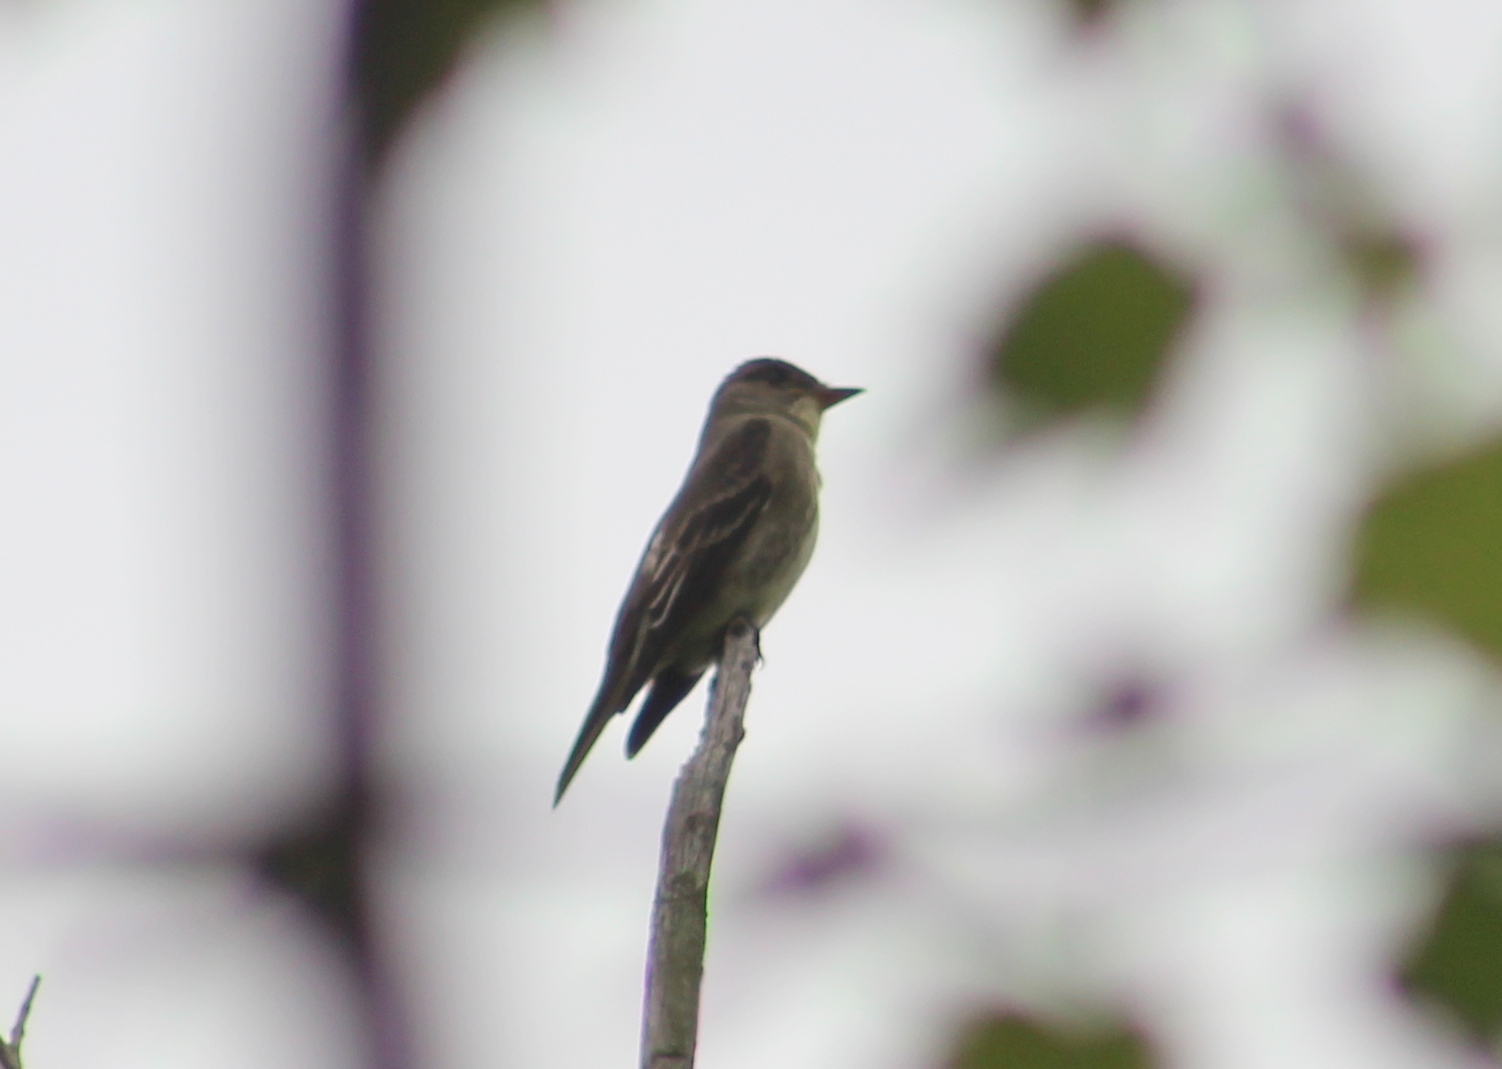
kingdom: Animalia
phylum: Chordata
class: Aves
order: Passeriformes
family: Tyrannidae
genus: Contopus
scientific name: Contopus cooperi
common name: Olive-sided flycatcher
